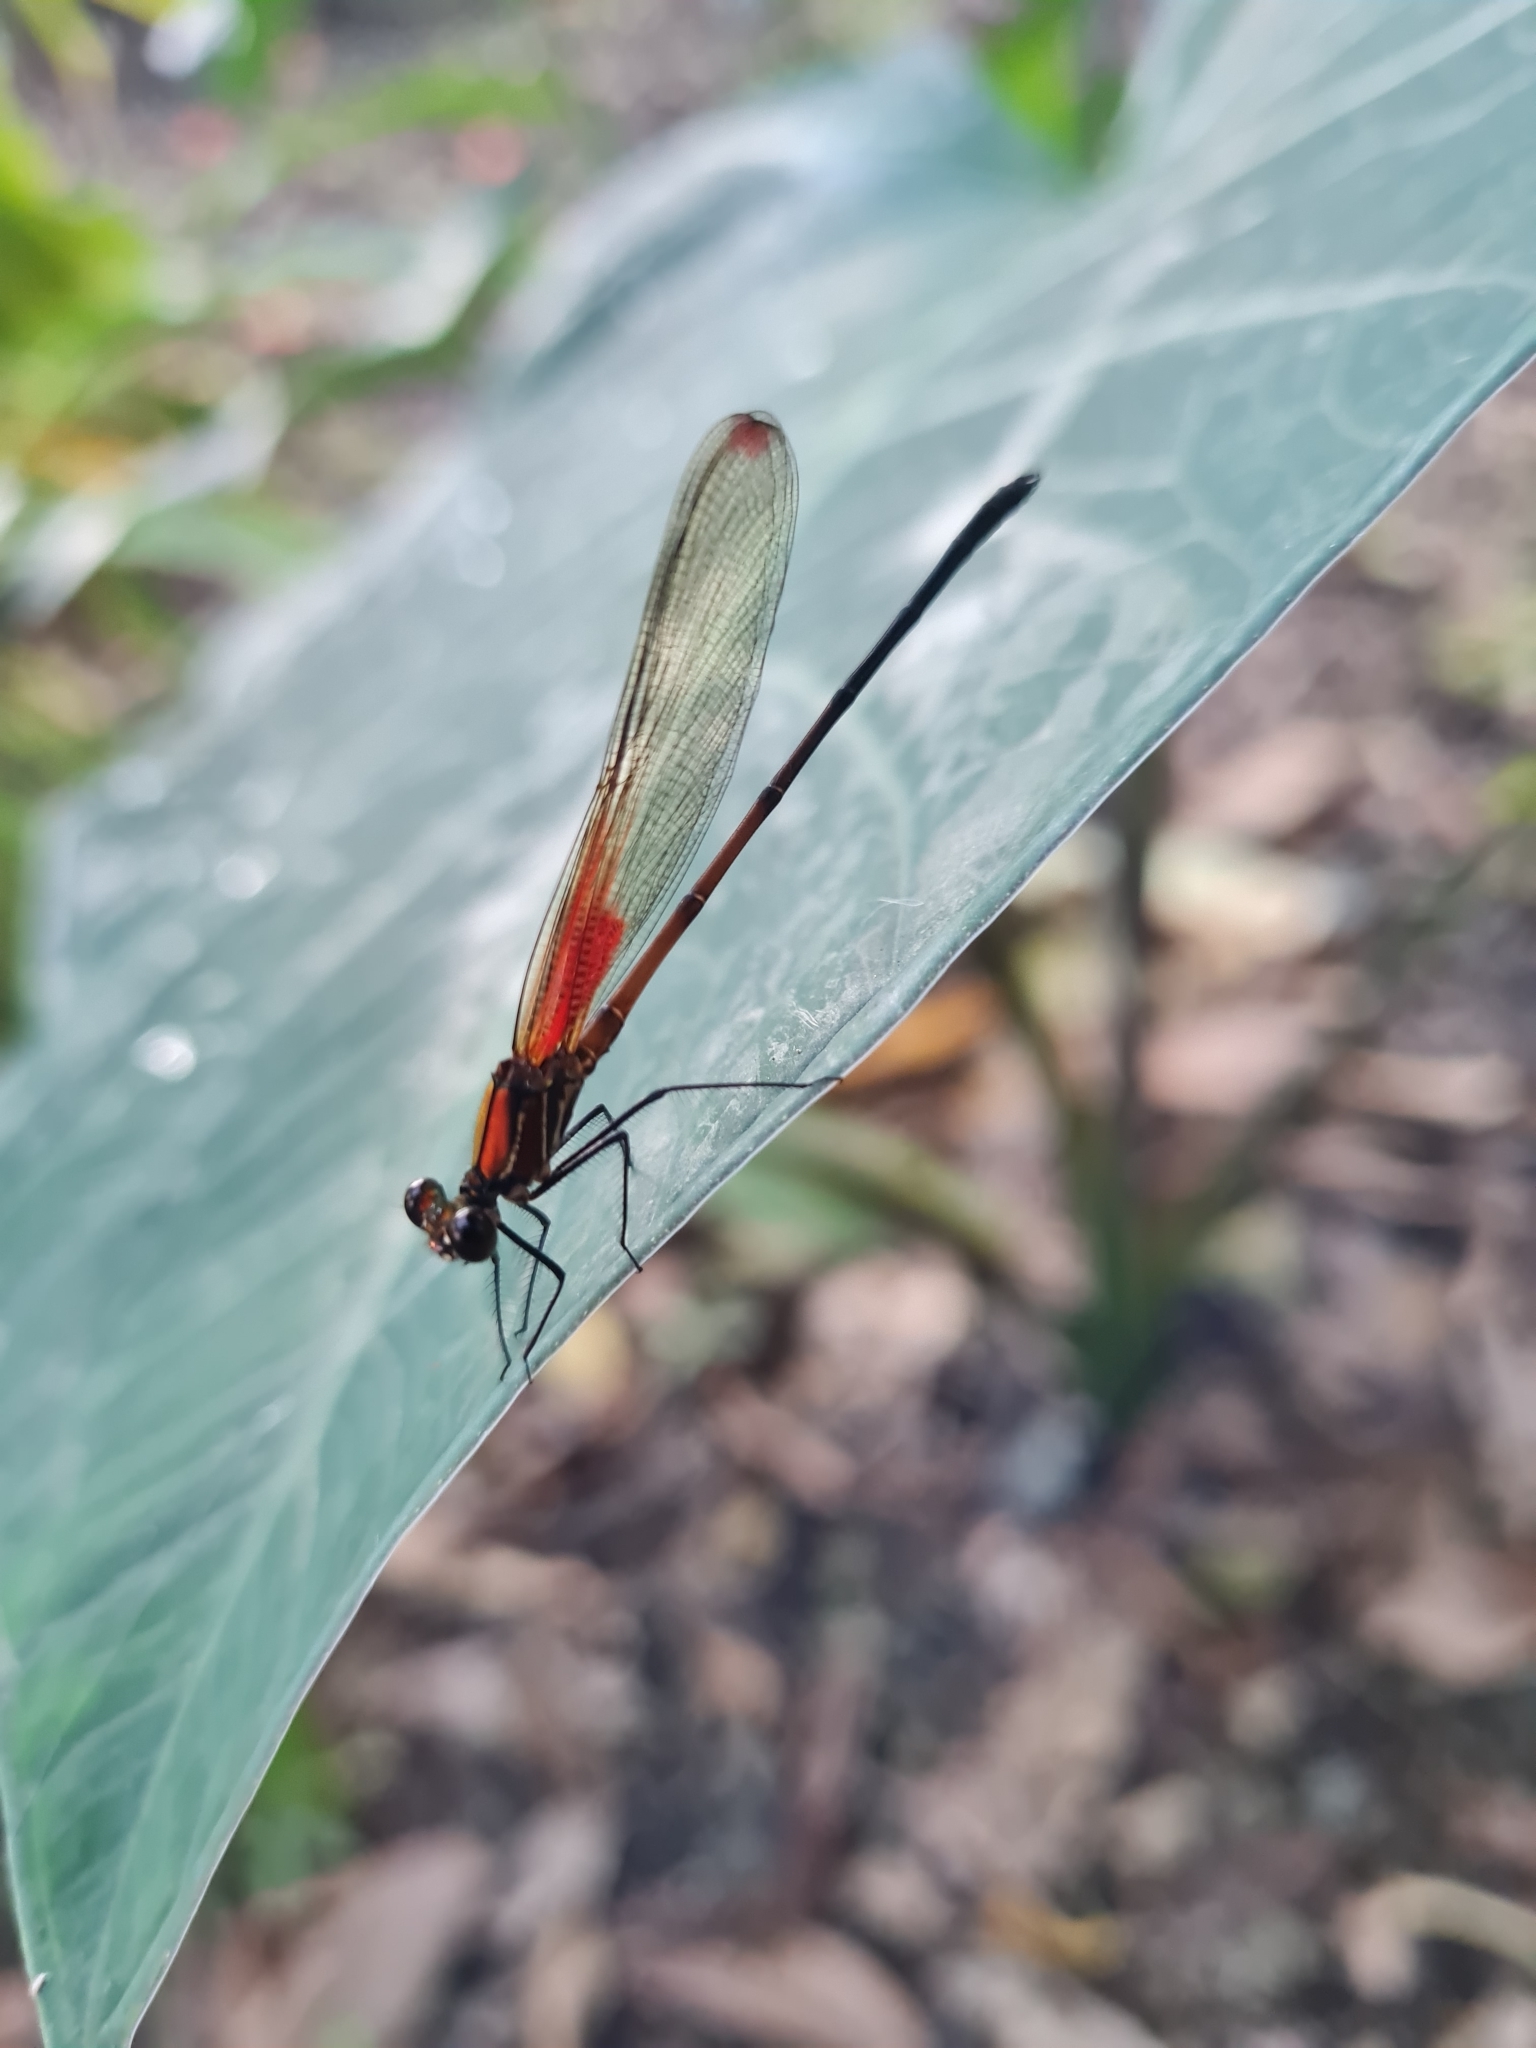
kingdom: Animalia
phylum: Arthropoda
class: Insecta
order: Odonata
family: Calopterygidae
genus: Hetaerina
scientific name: Hetaerina caja
